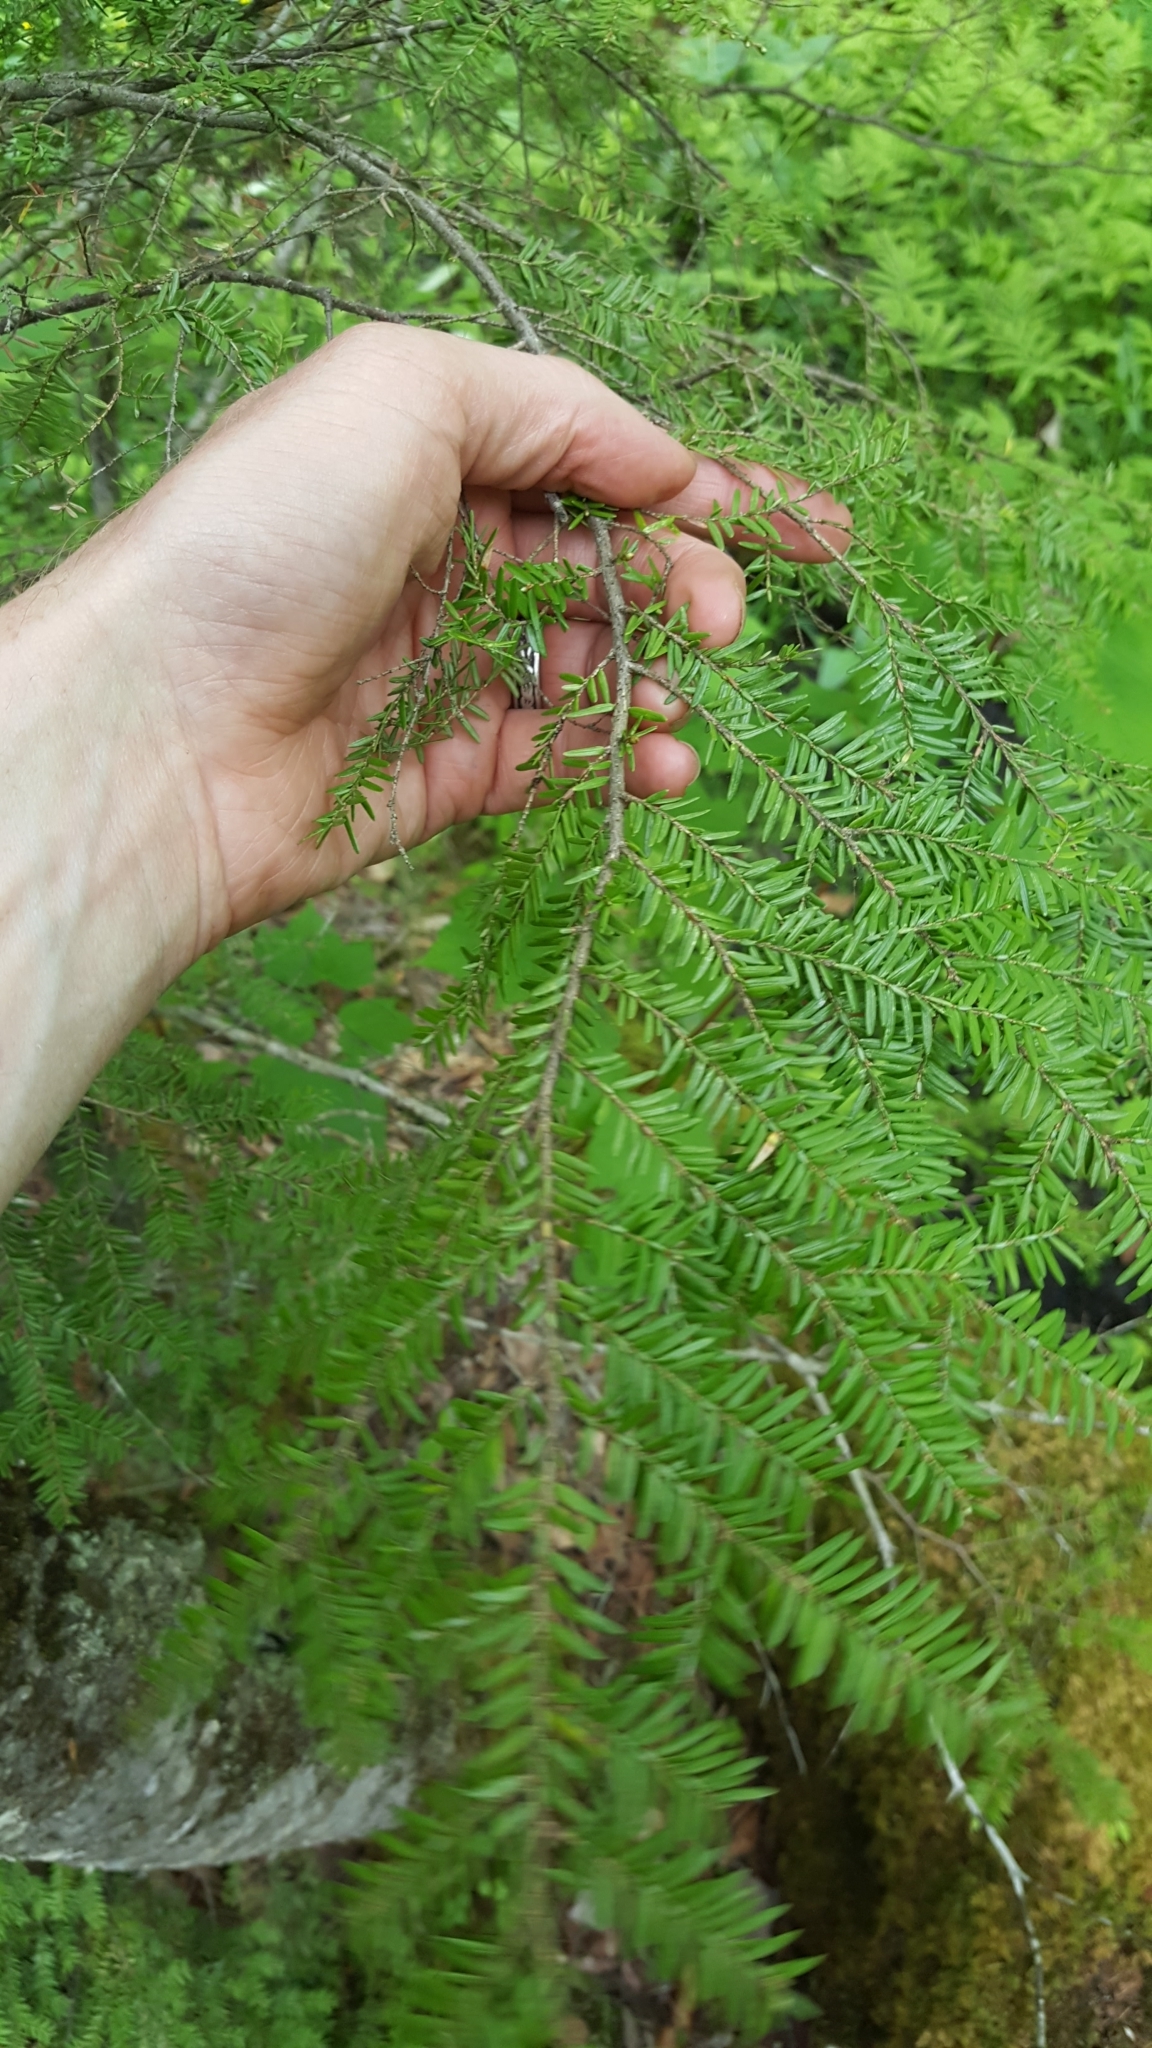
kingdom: Plantae
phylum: Tracheophyta
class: Pinopsida
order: Pinales
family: Pinaceae
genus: Tsuga
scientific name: Tsuga canadensis
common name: Eastern hemlock
